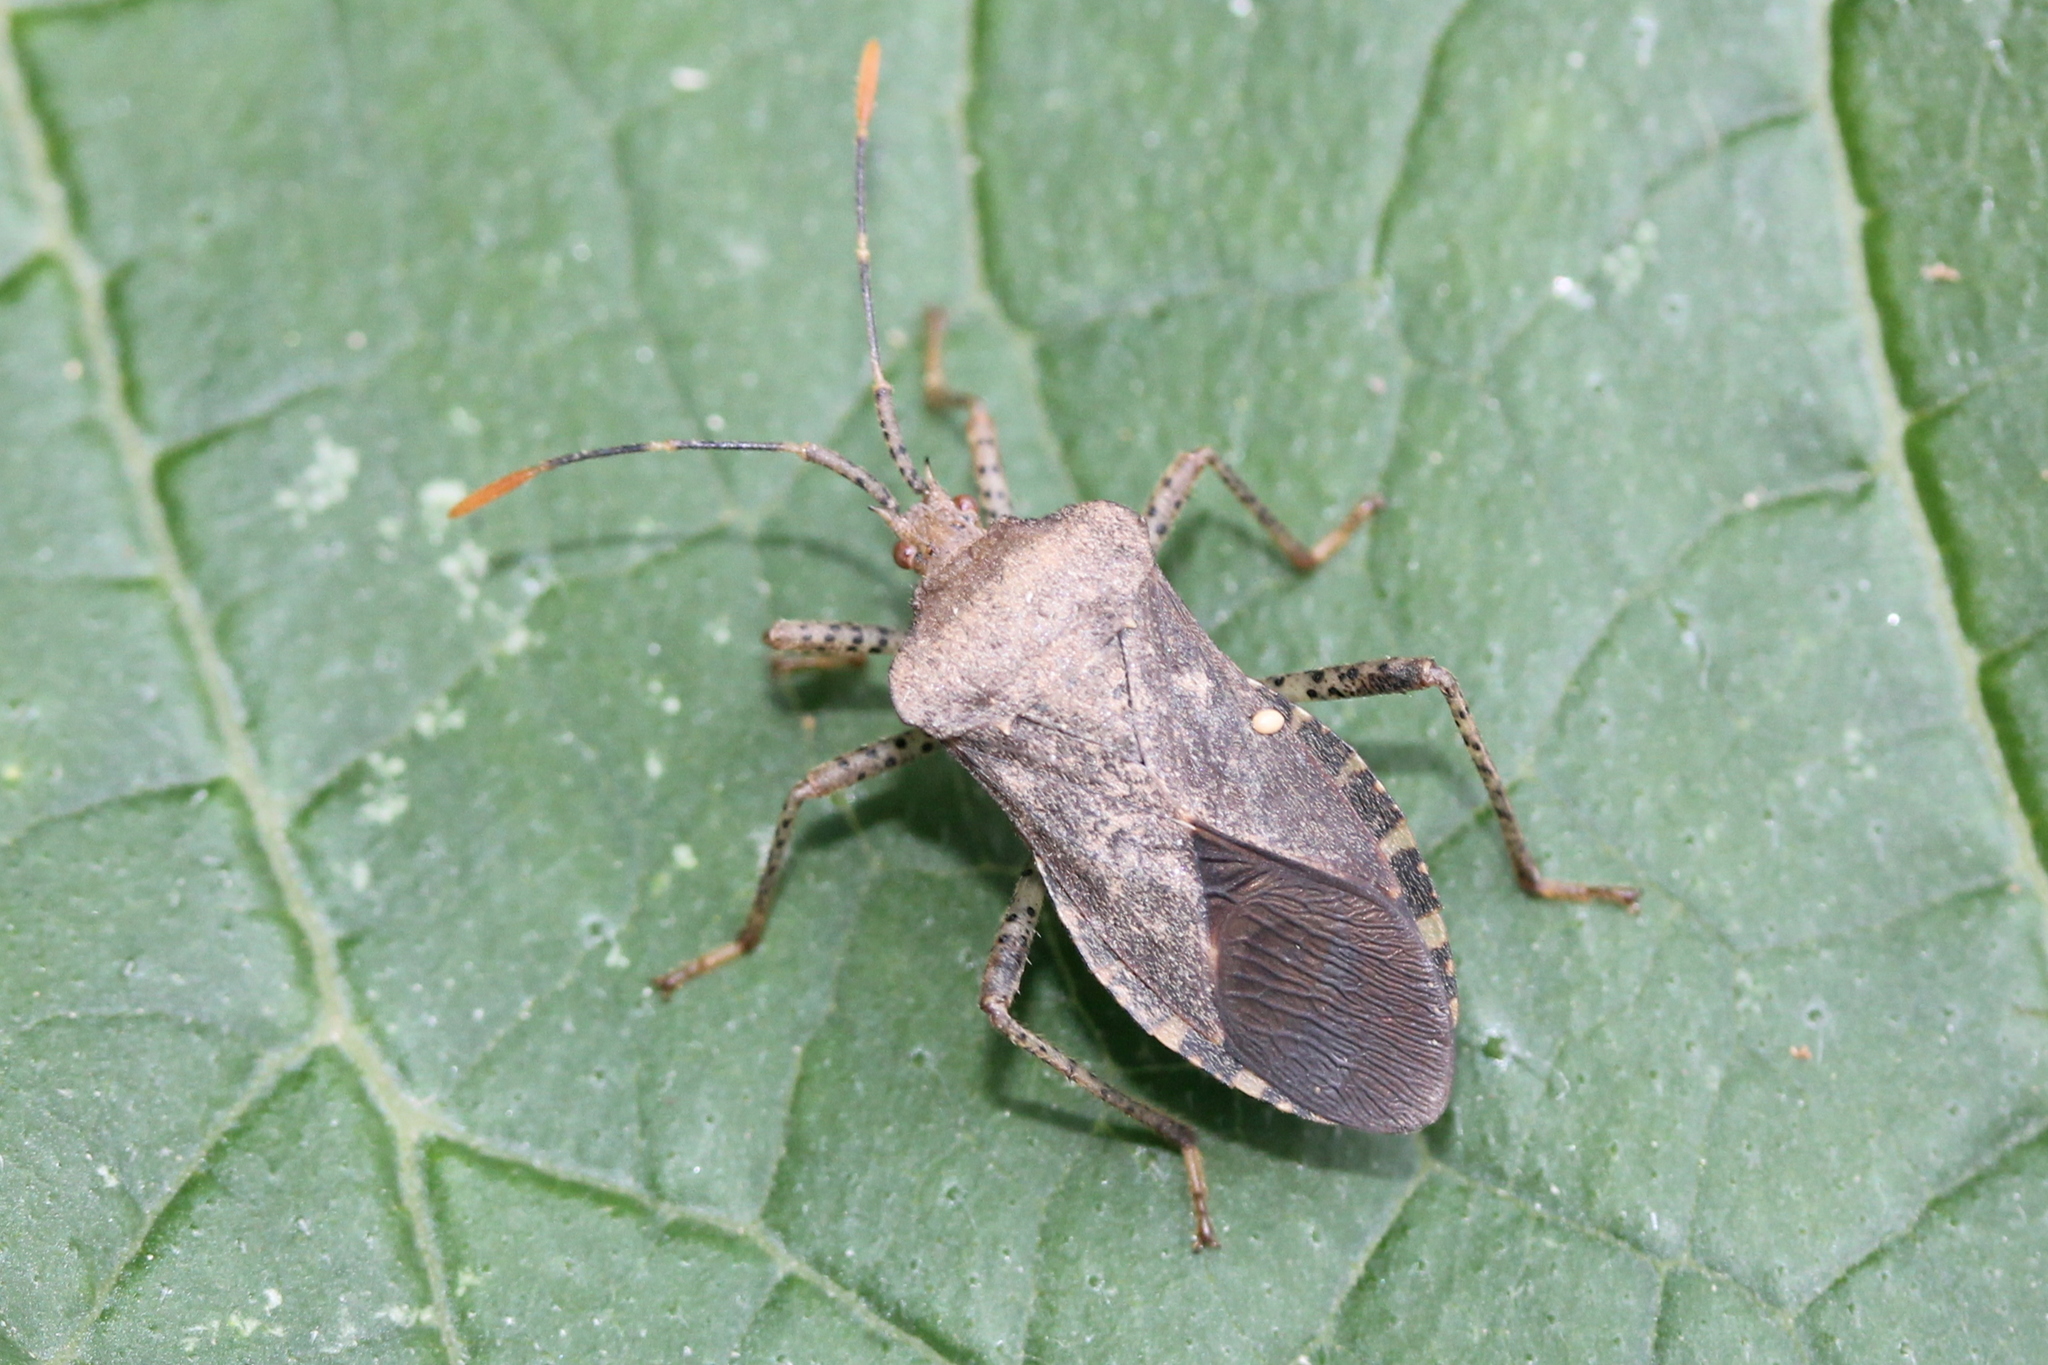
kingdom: Animalia
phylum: Arthropoda
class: Insecta
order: Hemiptera
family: Coreidae
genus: Anasa
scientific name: Anasa armigera
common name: Horned squash bug
